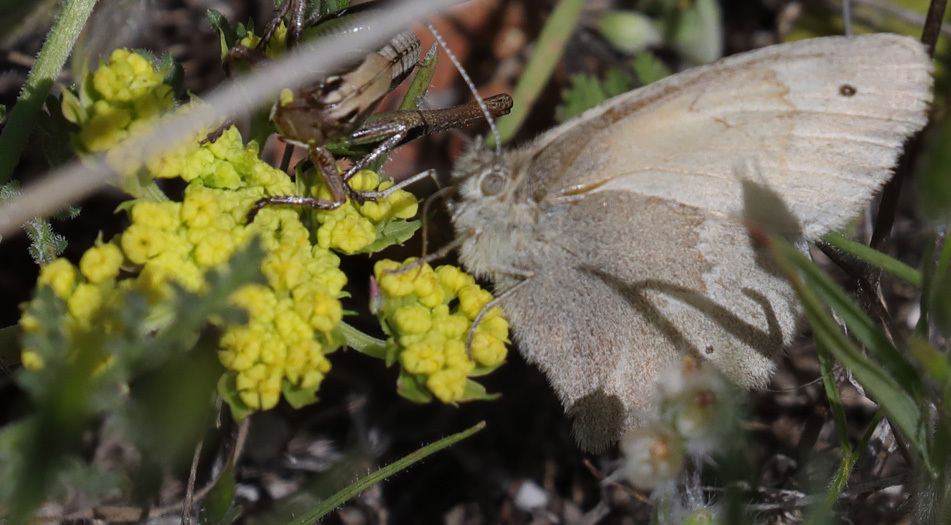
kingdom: Animalia
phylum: Arthropoda
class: Insecta
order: Lepidoptera
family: Nymphalidae
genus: Coenonympha
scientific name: Coenonympha california
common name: Common ringlet
